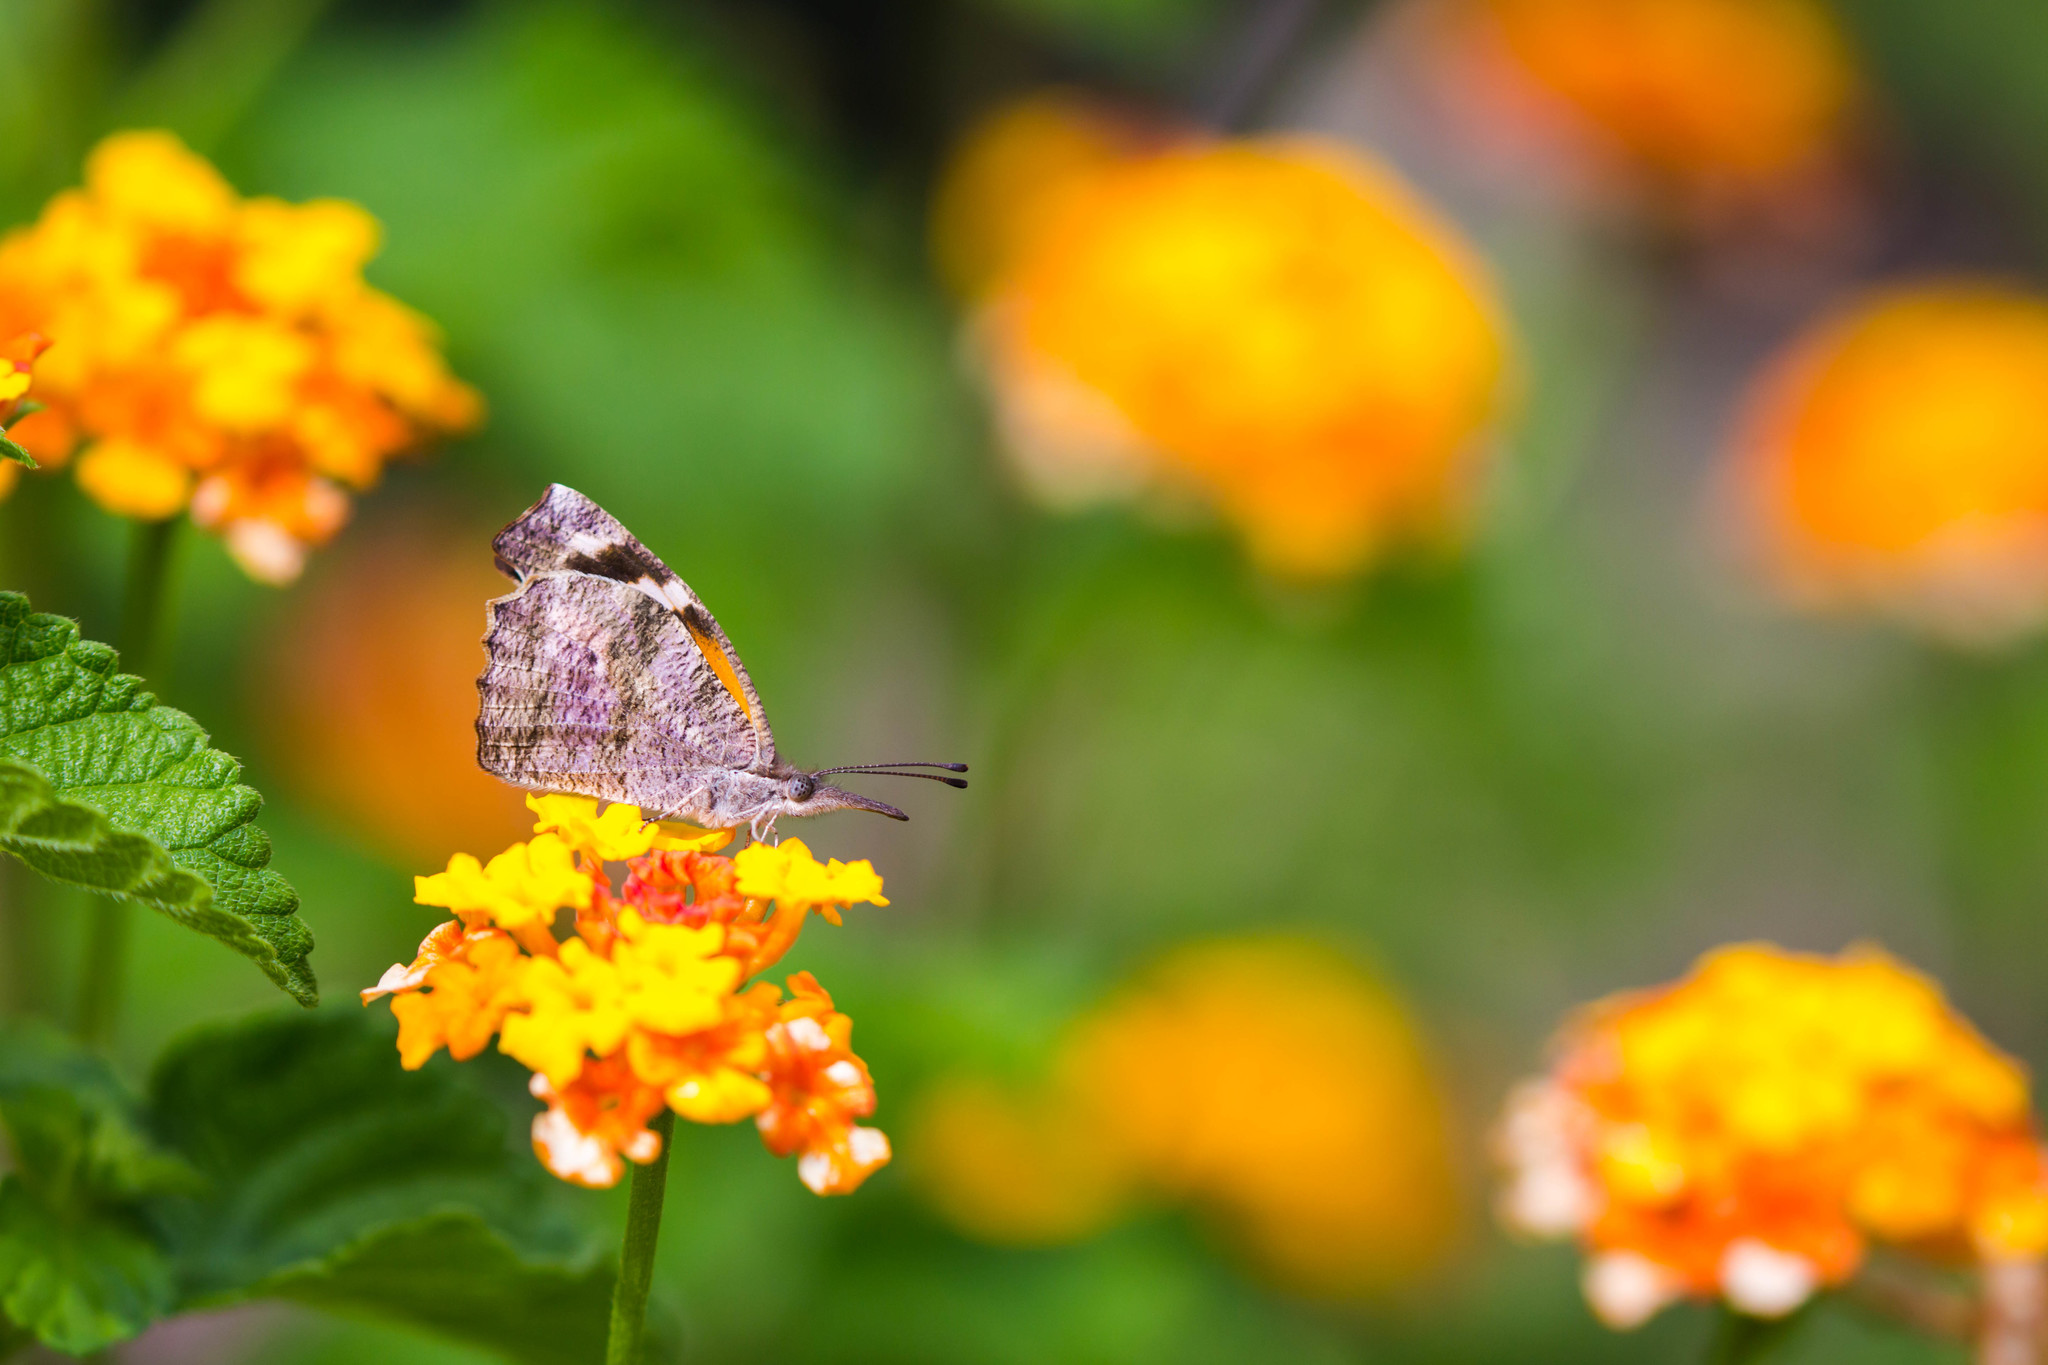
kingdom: Animalia
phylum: Arthropoda
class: Insecta
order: Lepidoptera
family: Nymphalidae
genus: Libytheana
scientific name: Libytheana carinenta
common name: American snout
